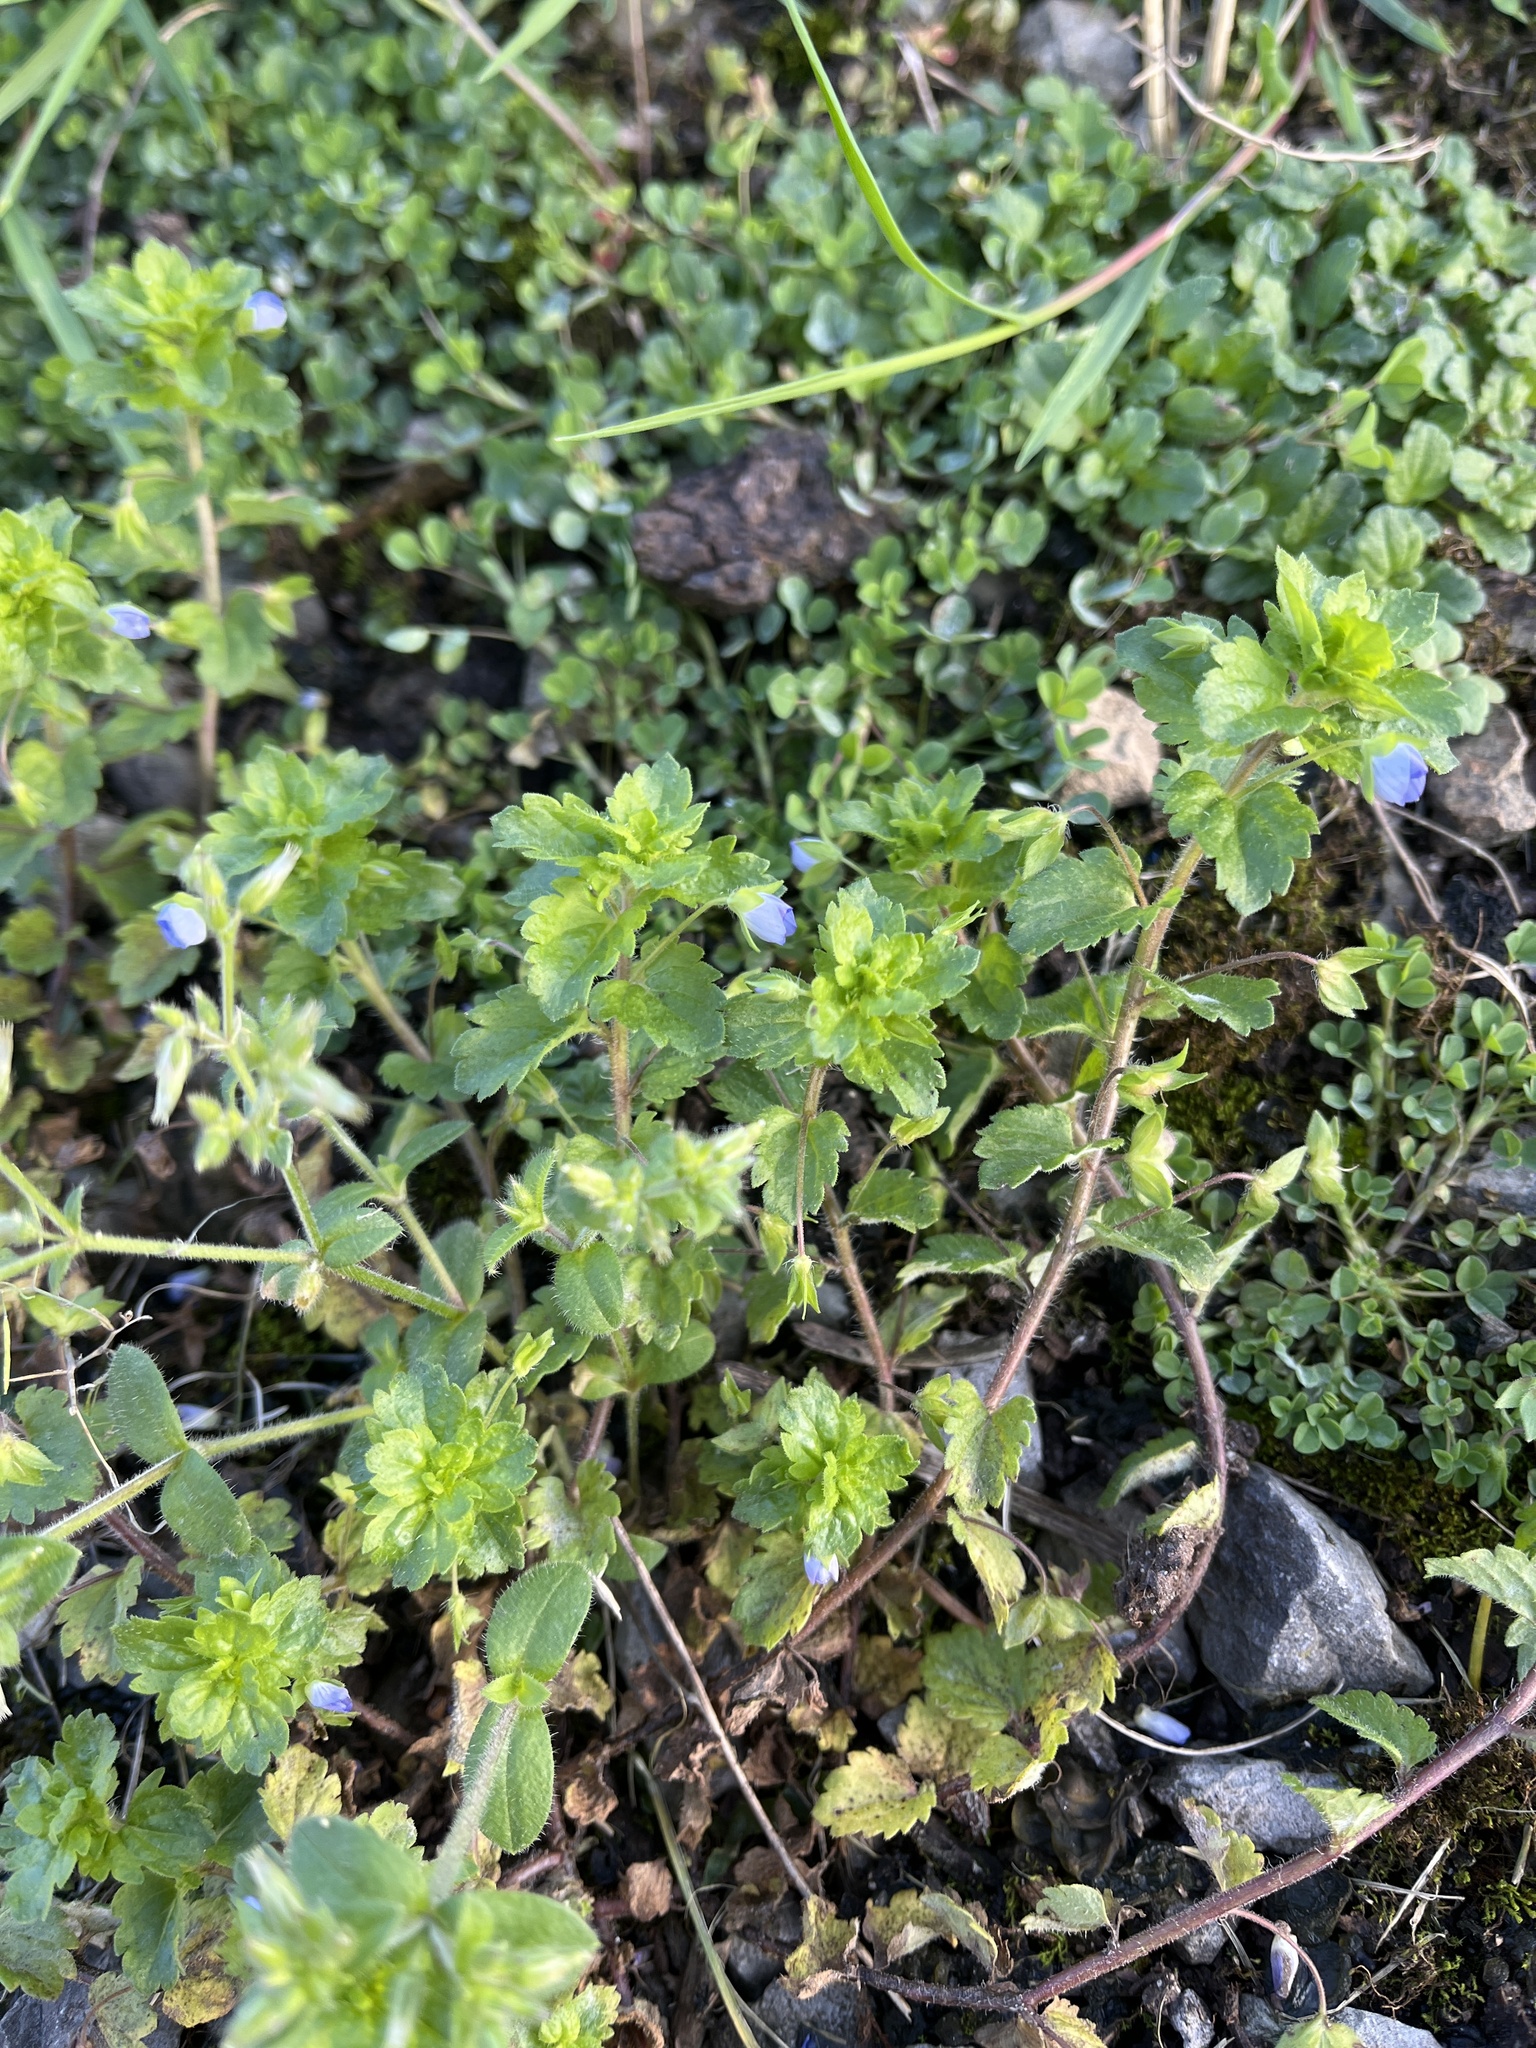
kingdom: Plantae
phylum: Tracheophyta
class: Magnoliopsida
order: Lamiales
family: Plantaginaceae
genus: Veronica
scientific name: Veronica persica
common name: Common field-speedwell
